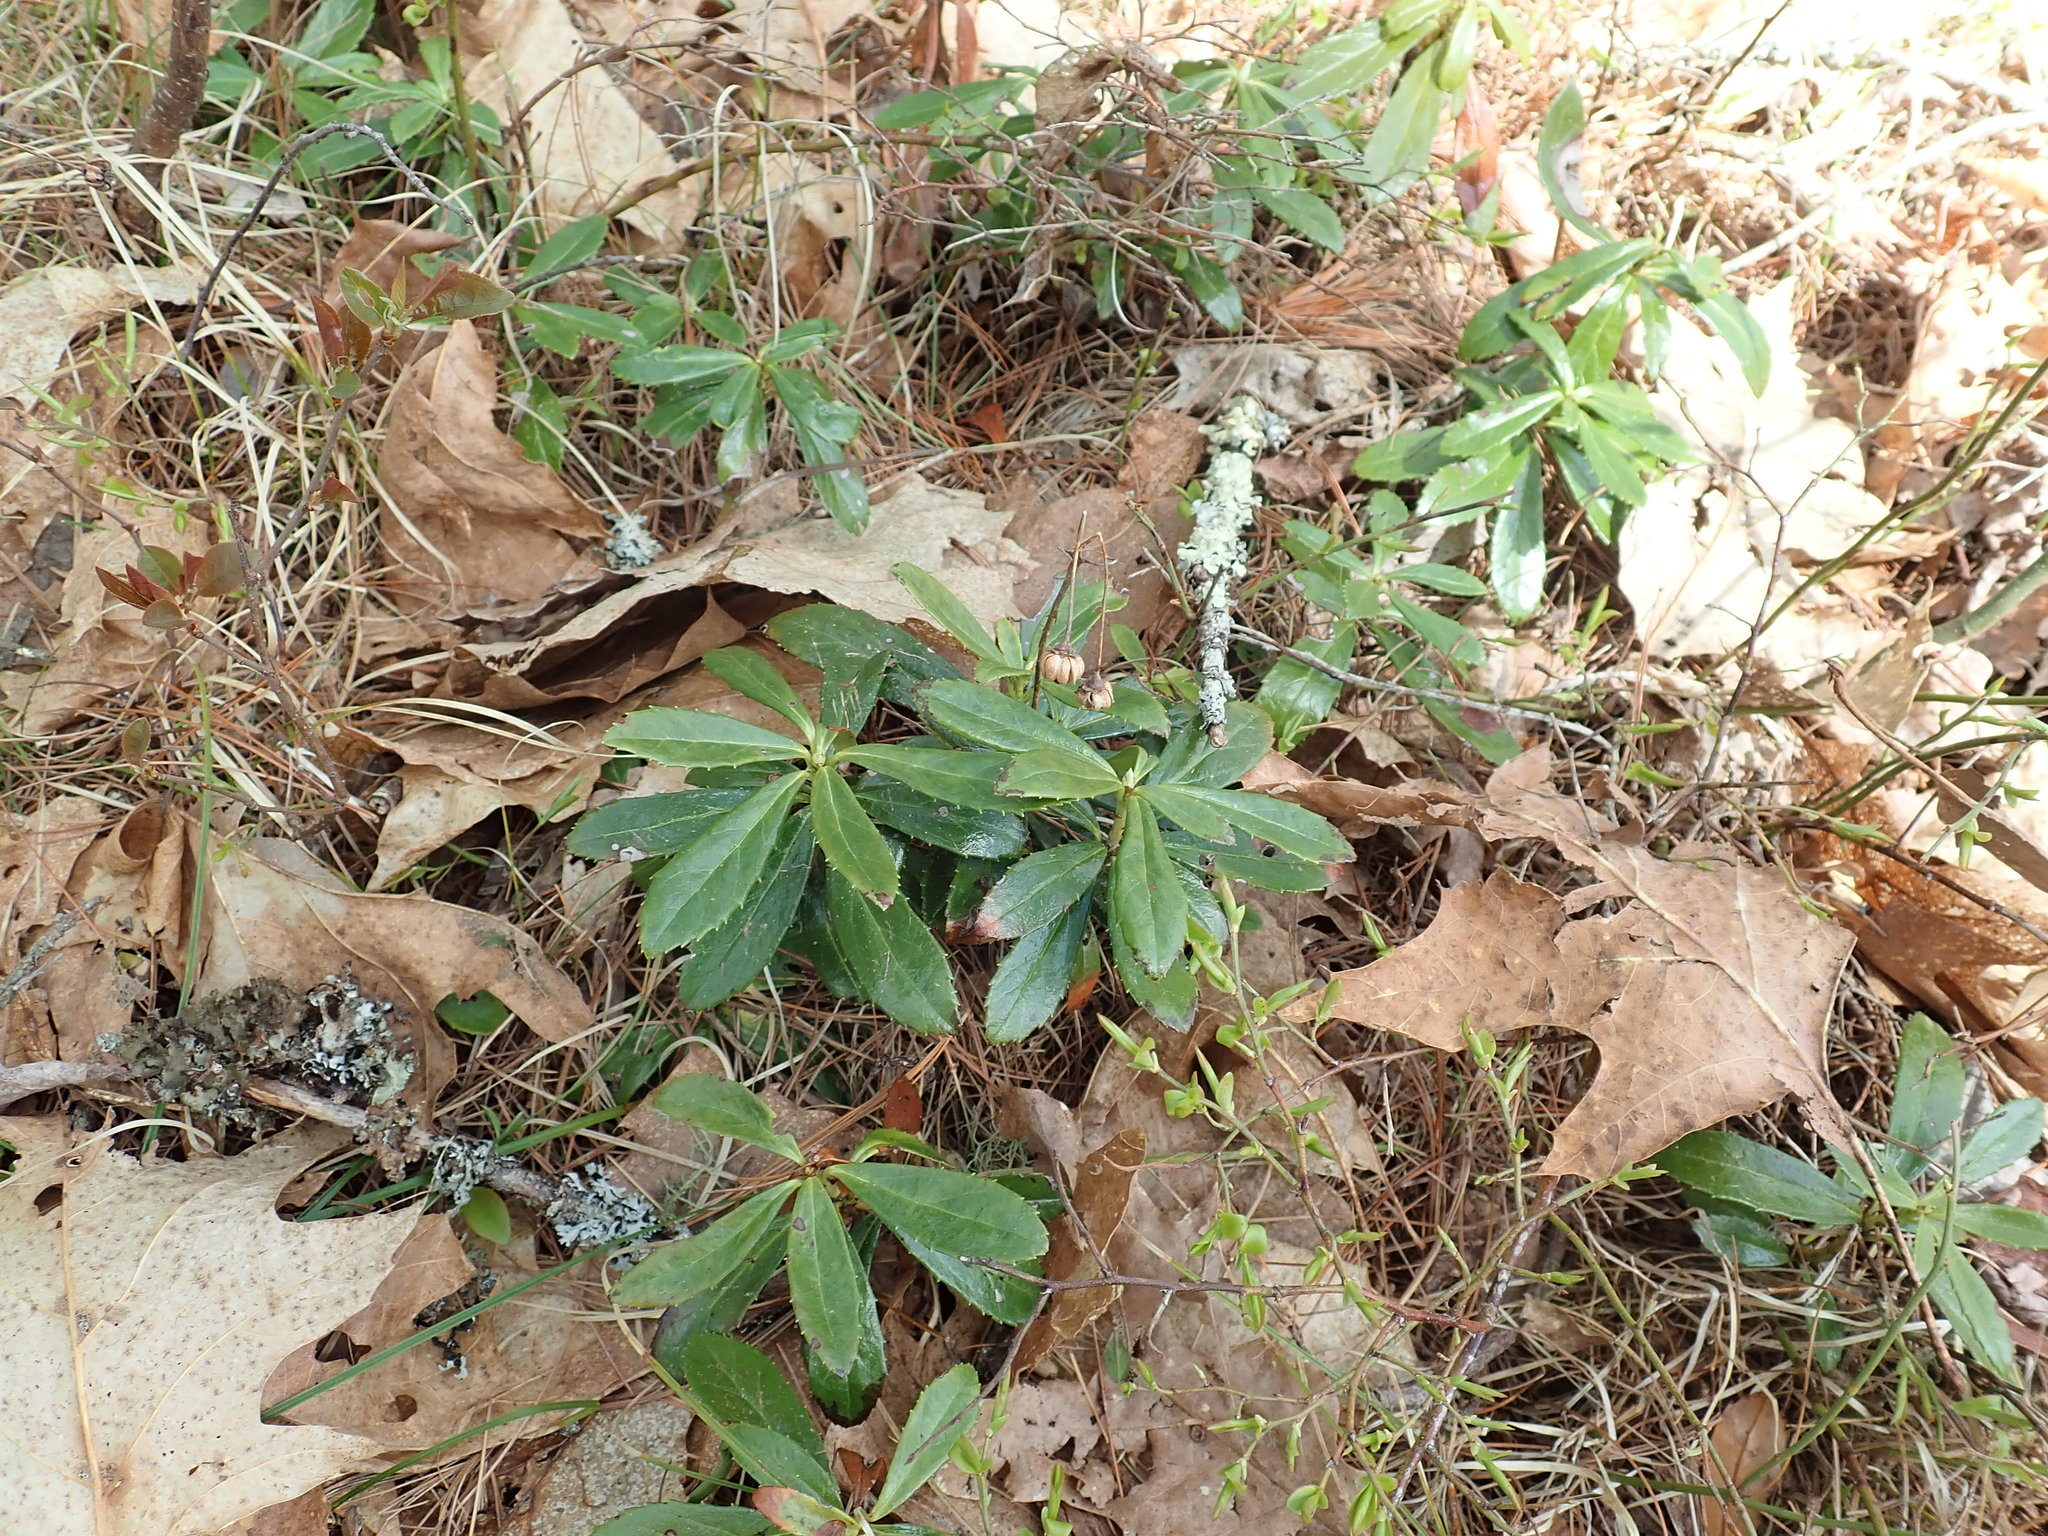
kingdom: Plantae
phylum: Tracheophyta
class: Magnoliopsida
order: Ericales
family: Ericaceae
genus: Chimaphila
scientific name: Chimaphila umbellata
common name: Pipsissewa
